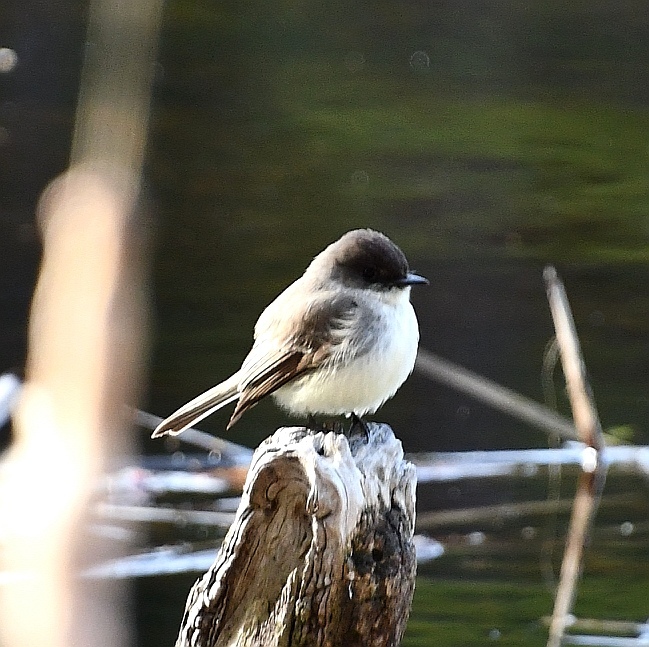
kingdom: Animalia
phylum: Chordata
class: Aves
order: Passeriformes
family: Tyrannidae
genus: Sayornis
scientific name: Sayornis phoebe
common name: Eastern phoebe
